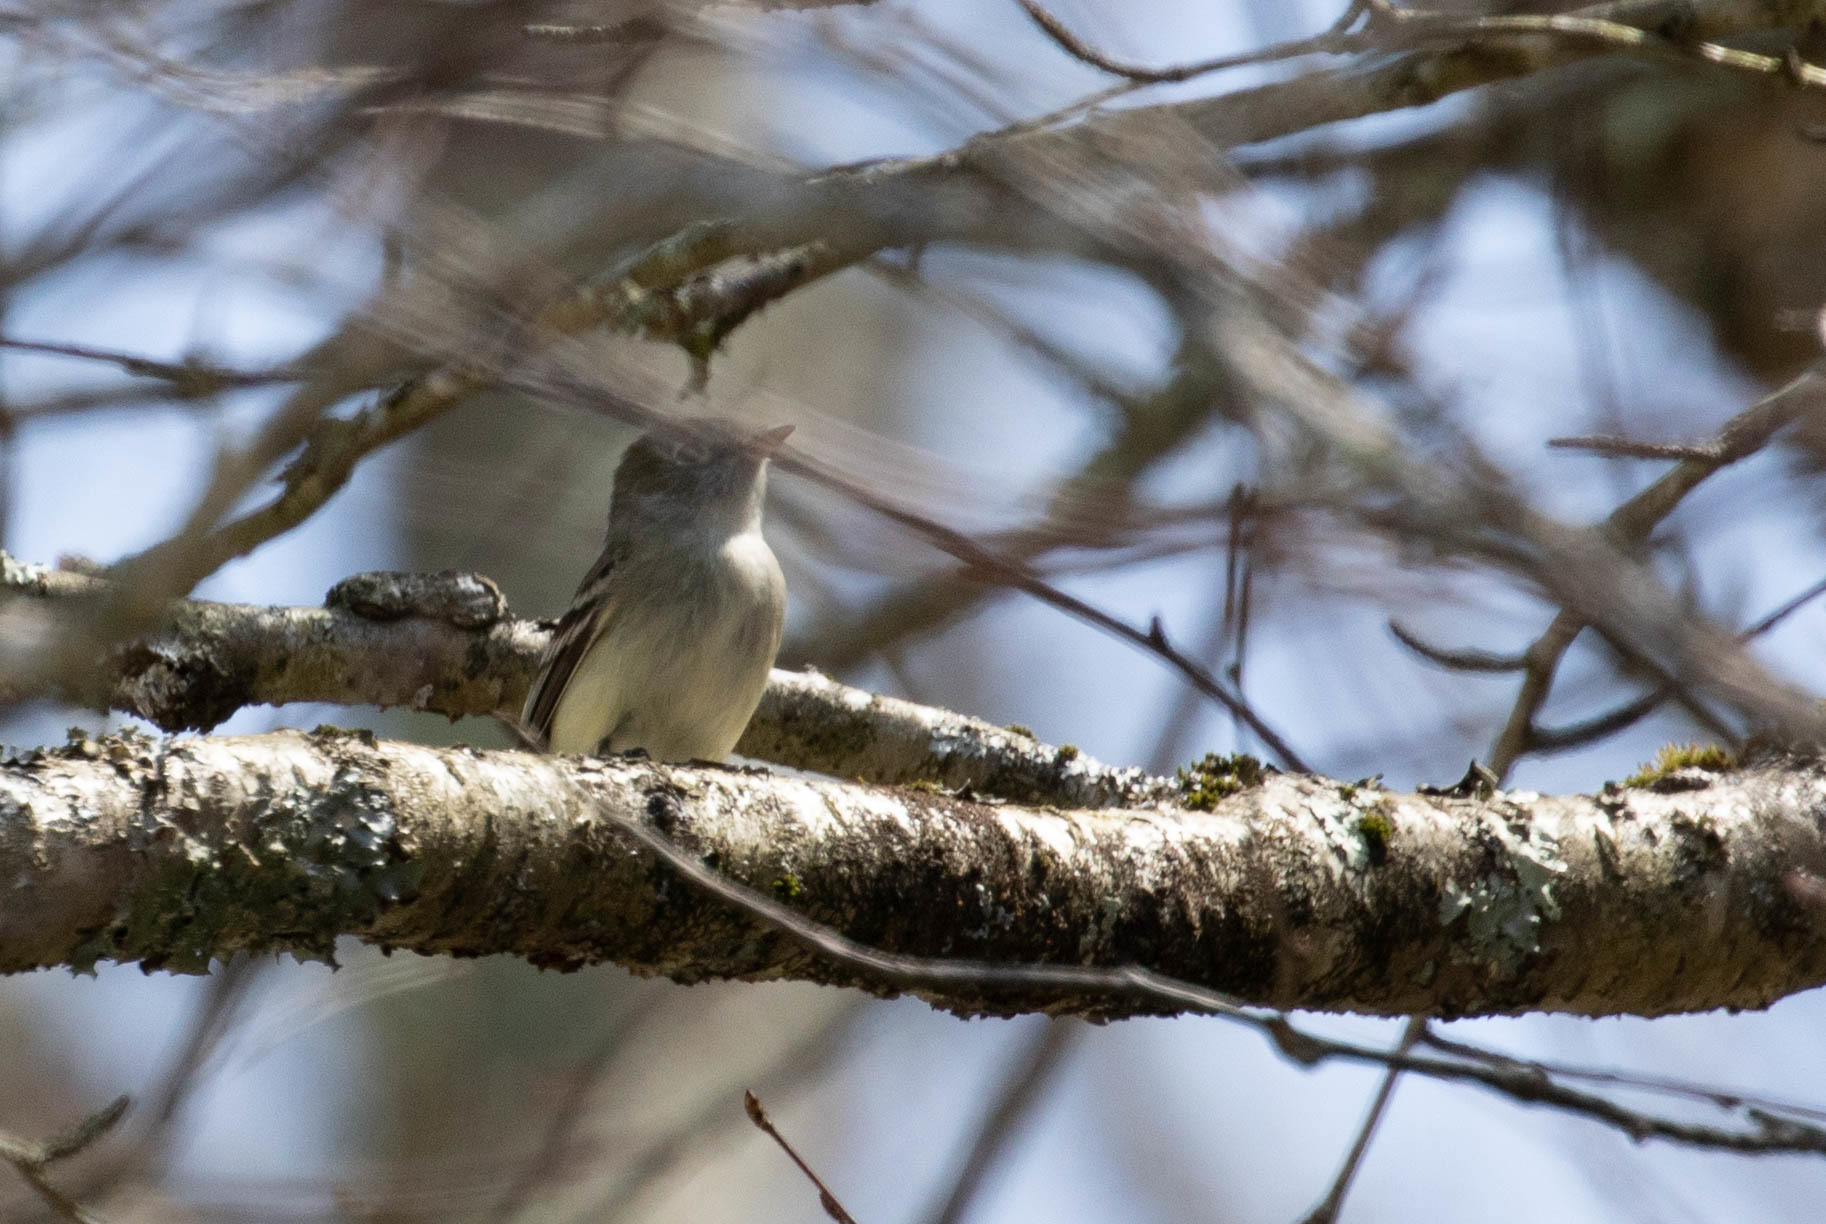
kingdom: Animalia
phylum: Chordata
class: Aves
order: Passeriformes
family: Tyrannidae
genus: Empidonax
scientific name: Empidonax minimus
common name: Least flycatcher
